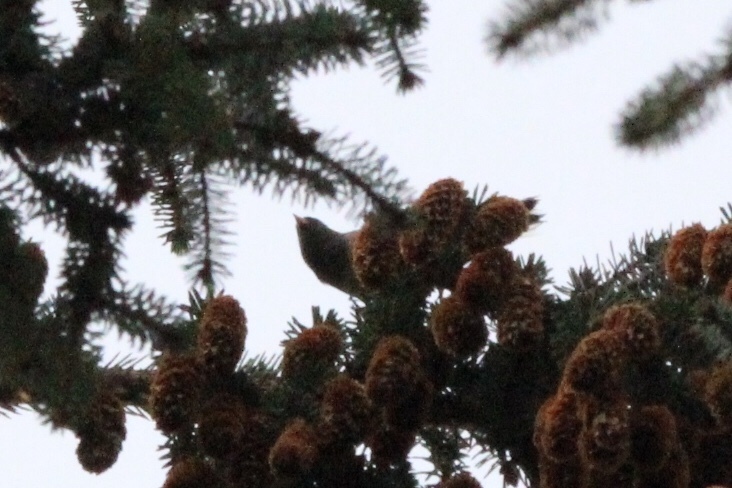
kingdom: Animalia
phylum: Chordata
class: Aves
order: Passeriformes
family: Passerellidae
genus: Junco
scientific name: Junco hyemalis
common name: Dark-eyed junco
